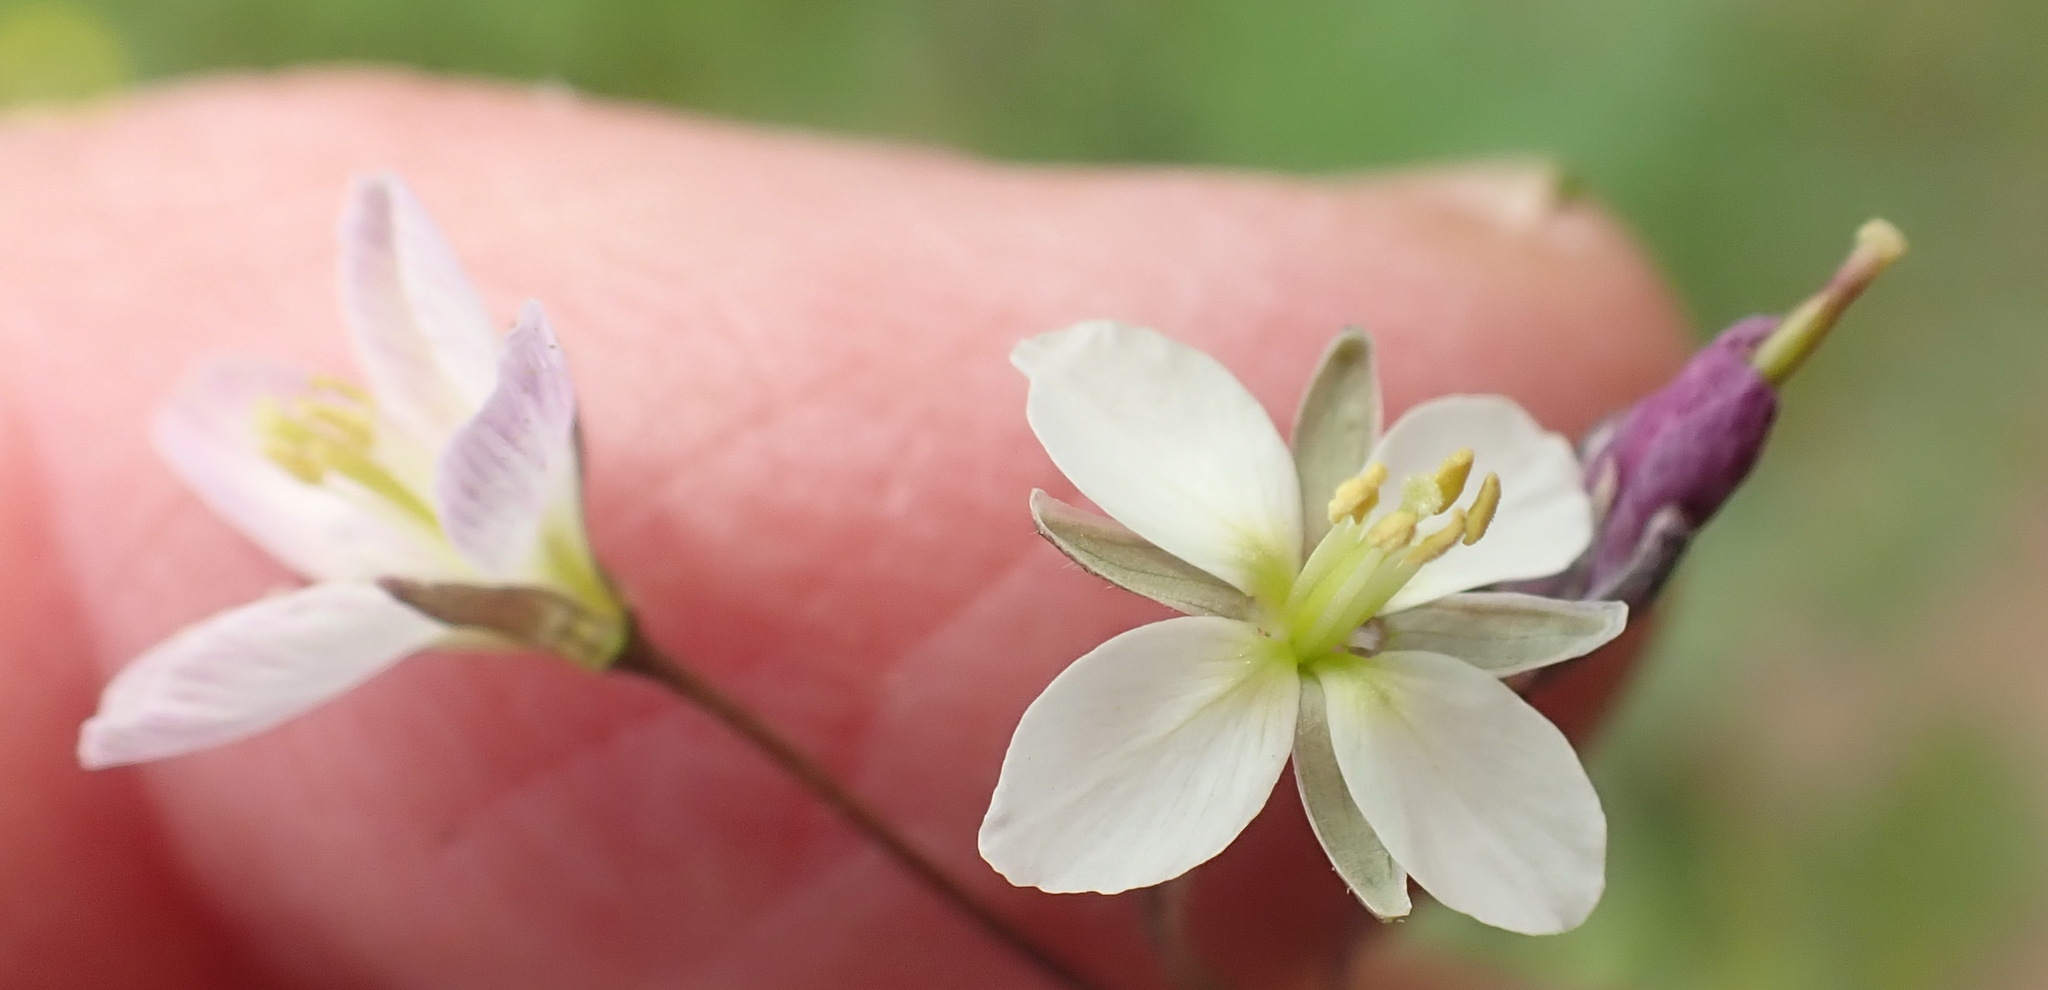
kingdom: Plantae
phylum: Tracheophyta
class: Magnoliopsida
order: Brassicales
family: Brassicaceae
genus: Heliophila
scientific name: Heliophila crithmifolia
